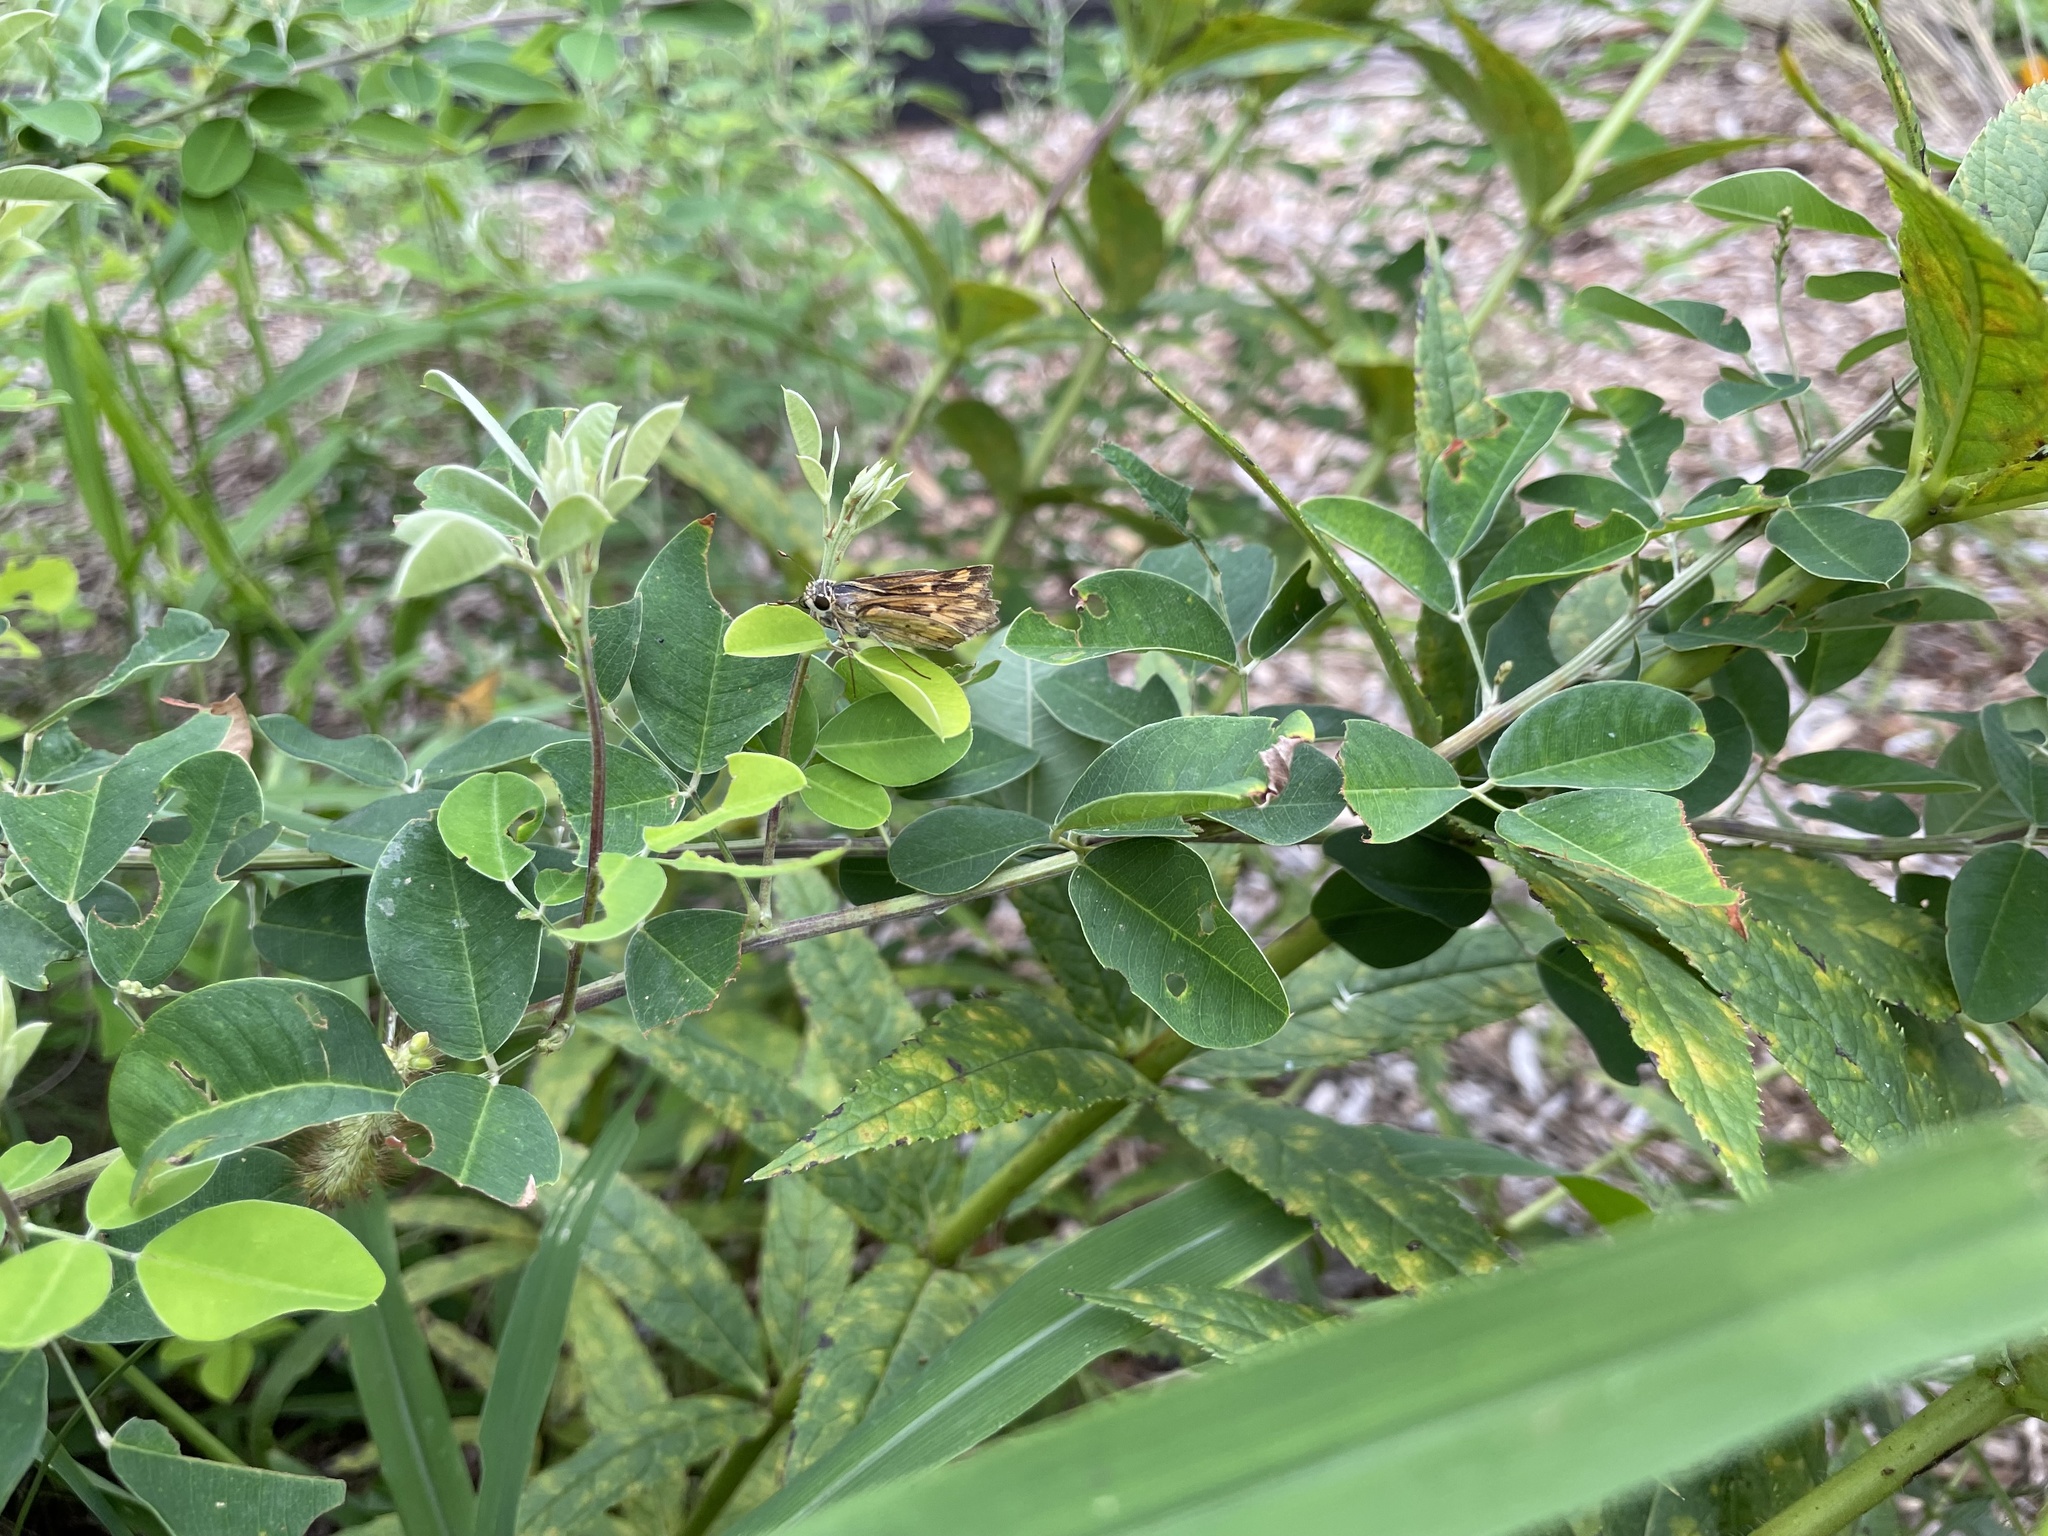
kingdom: Animalia
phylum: Arthropoda
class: Insecta
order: Lepidoptera
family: Hesperiidae
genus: Hylephila
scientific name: Hylephila phyleus
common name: Fiery skipper
